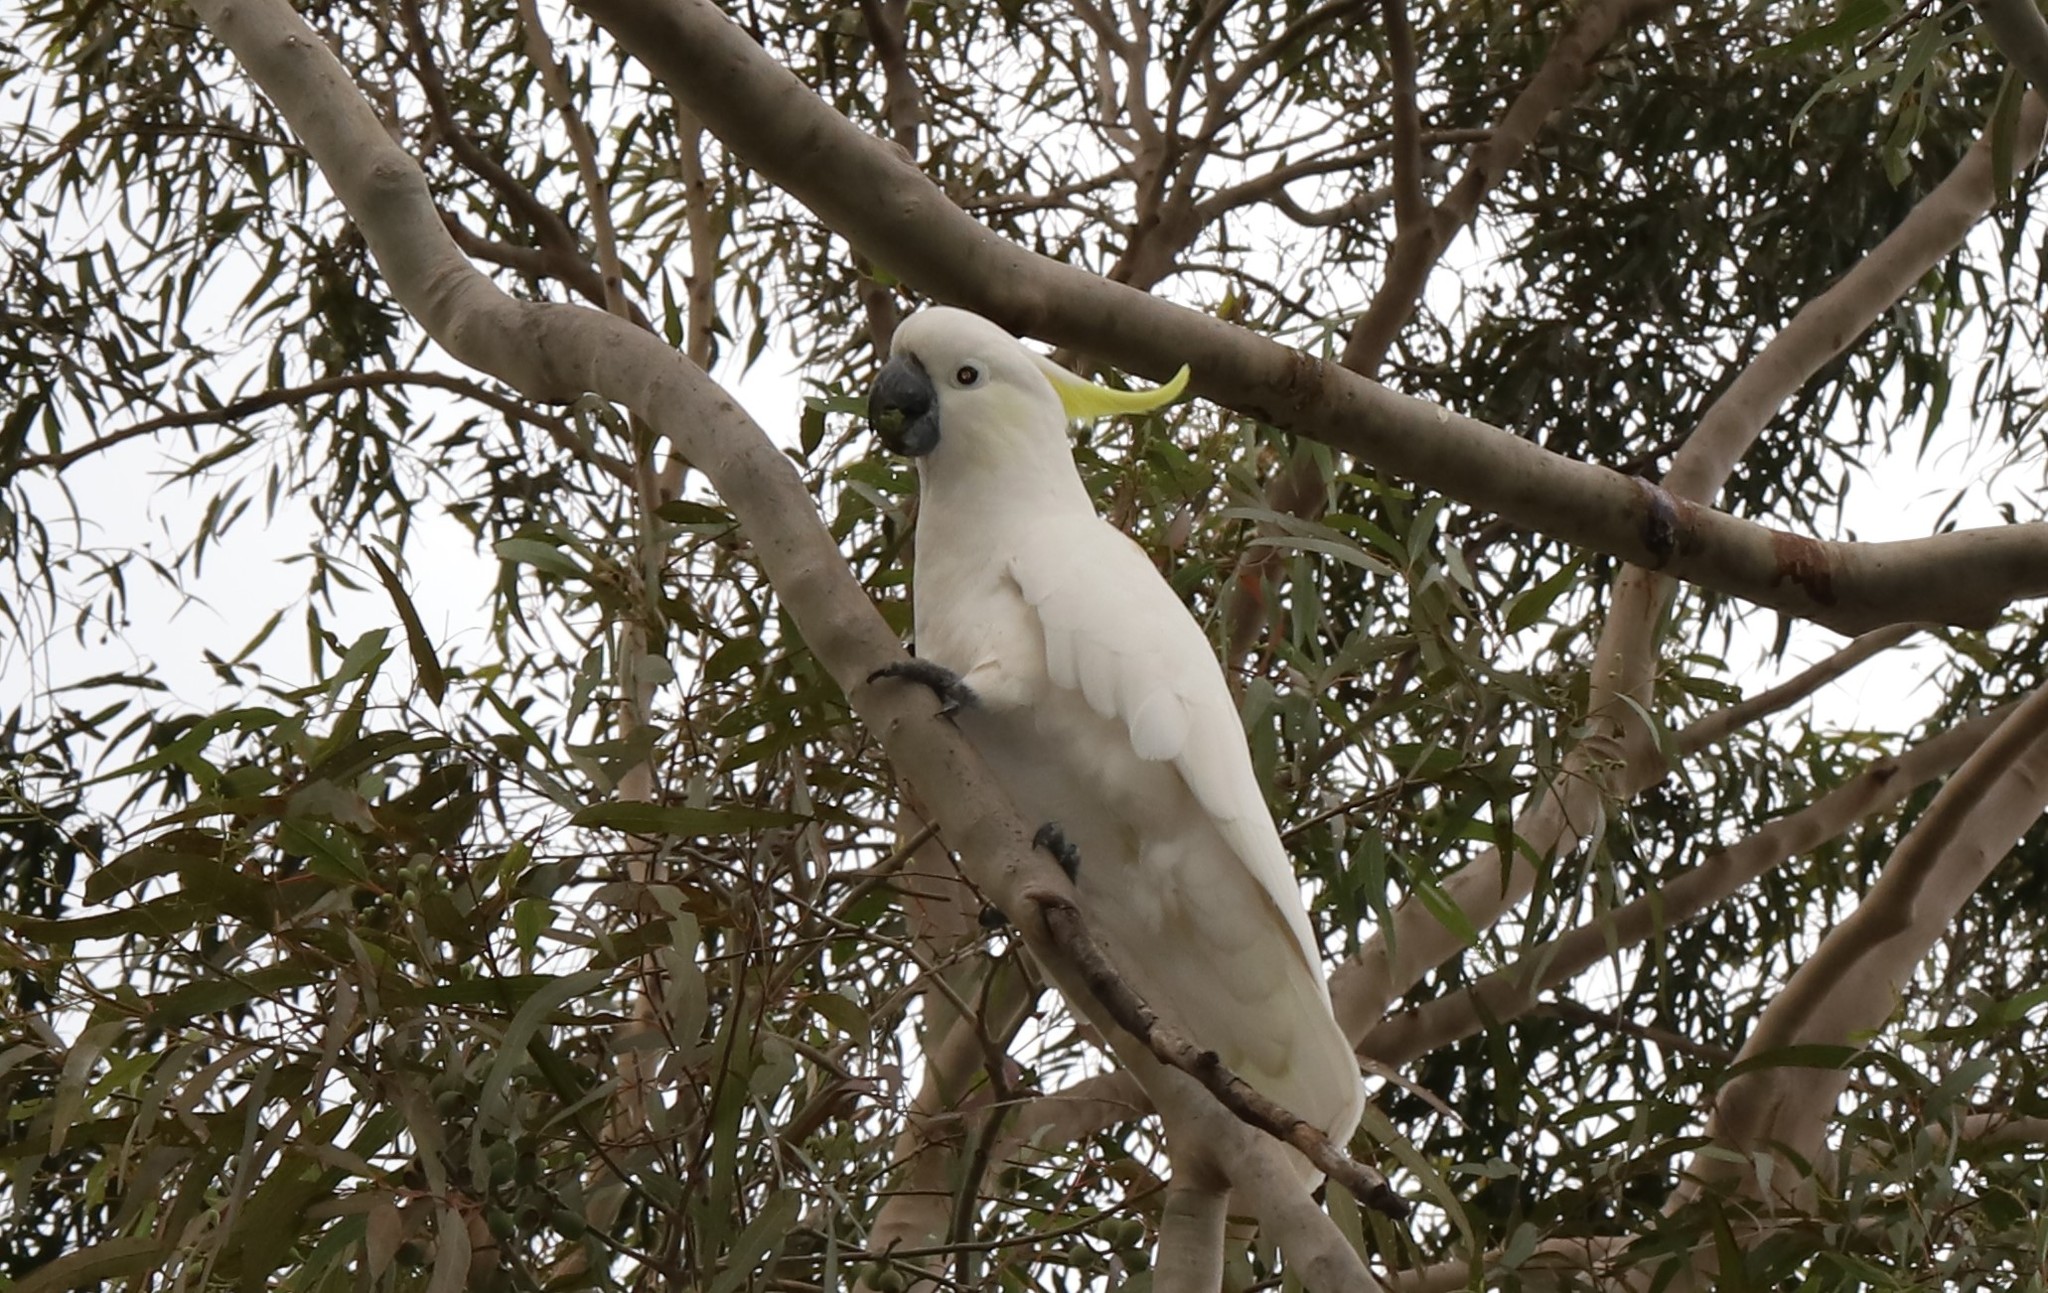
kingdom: Animalia
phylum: Chordata
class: Aves
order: Psittaciformes
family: Psittacidae
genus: Cacatua
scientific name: Cacatua galerita
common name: Sulphur-crested cockatoo
